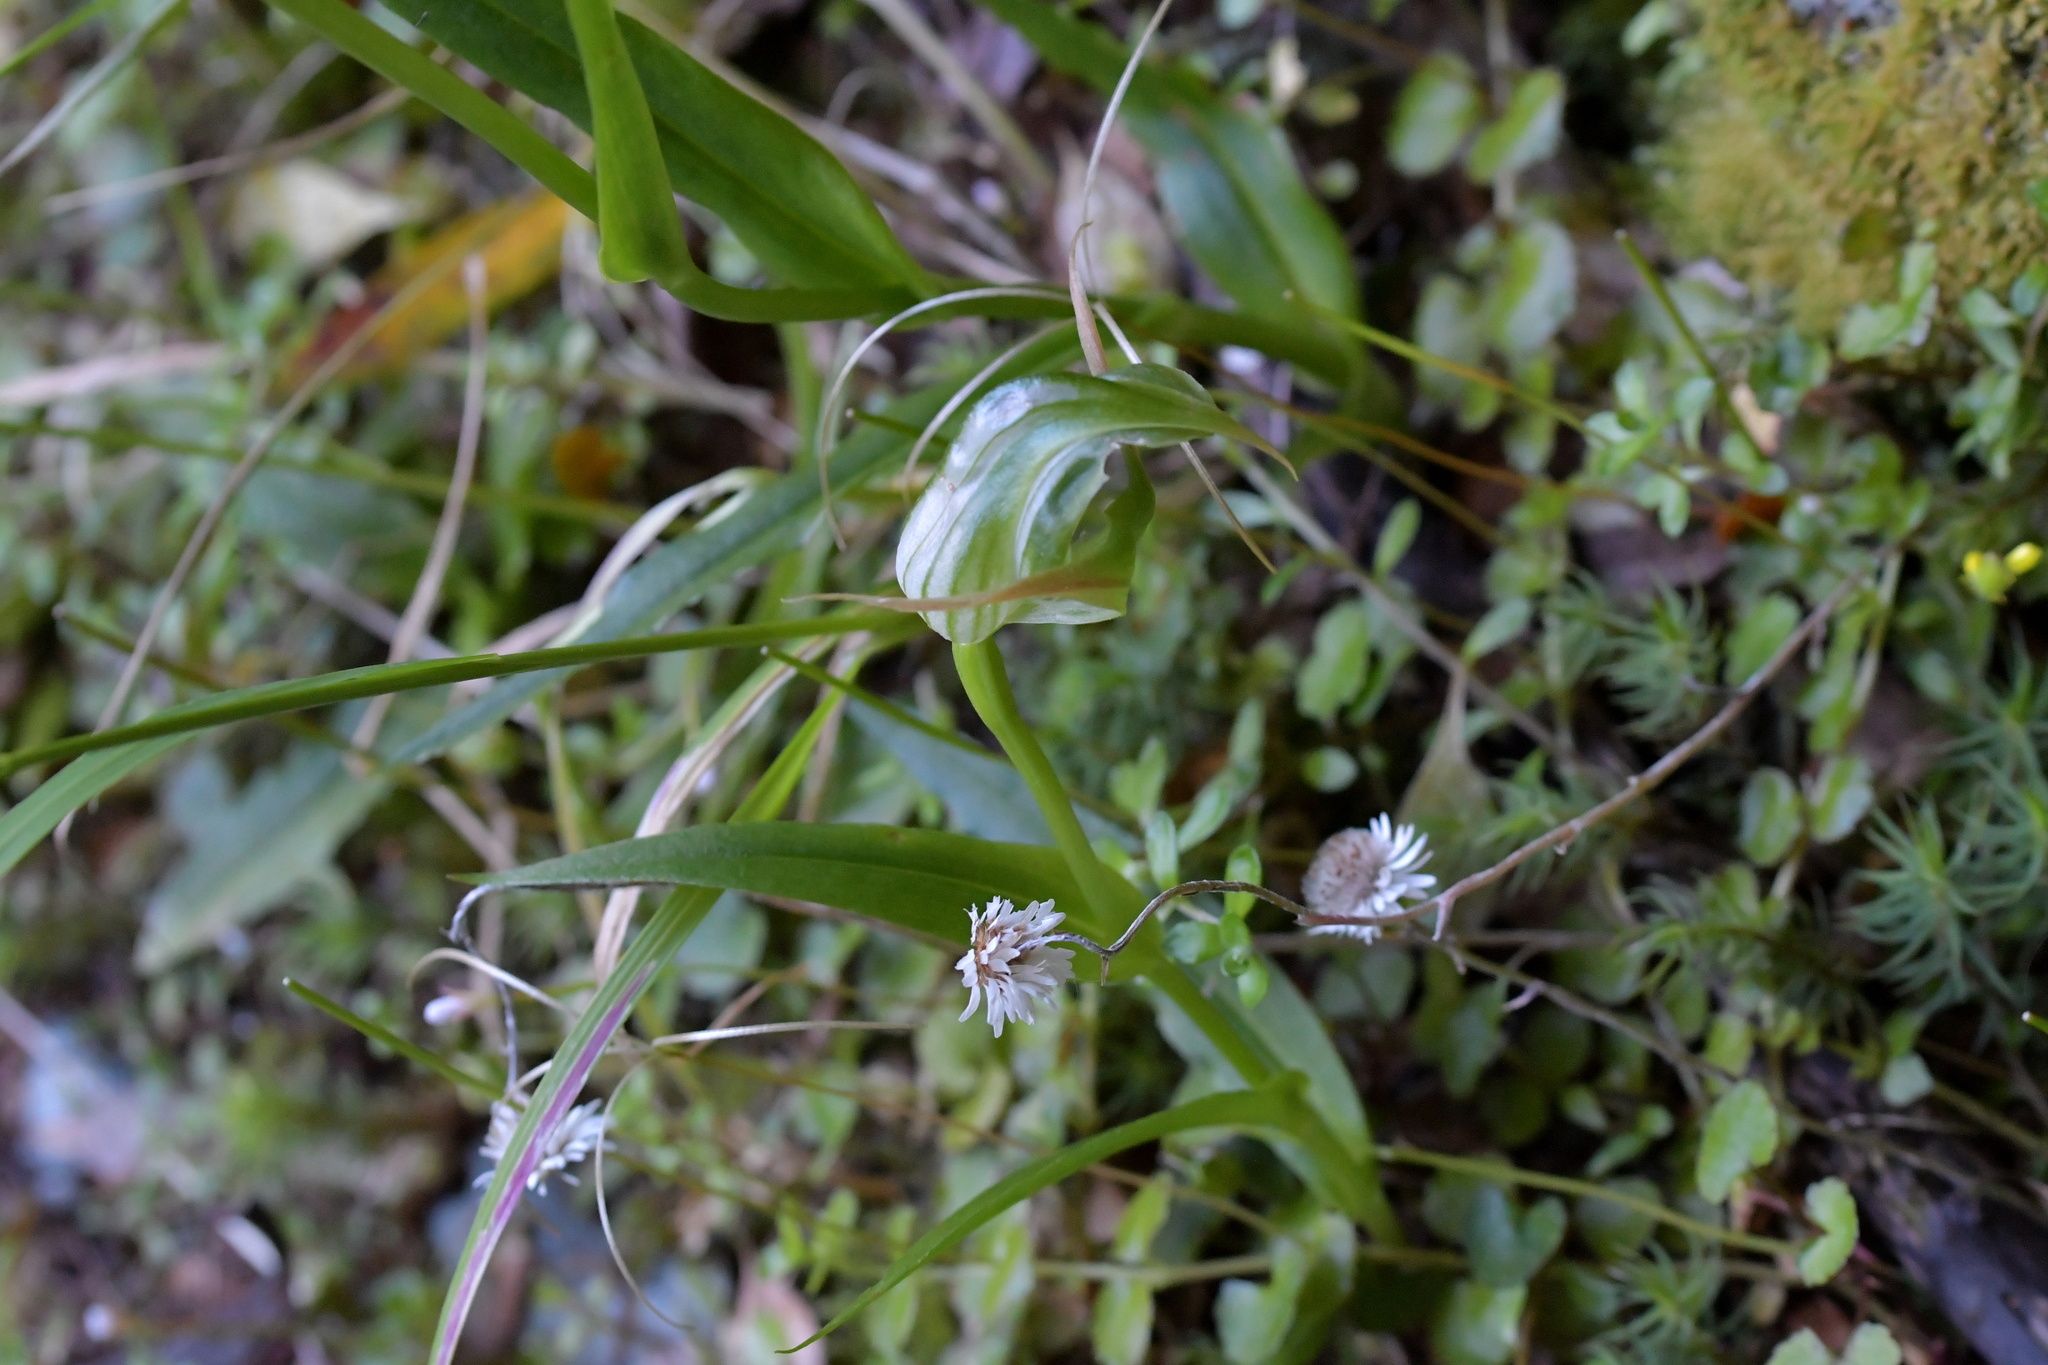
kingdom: Plantae
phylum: Tracheophyta
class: Liliopsida
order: Asparagales
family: Orchidaceae
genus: Pterostylis
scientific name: Pterostylis australis
